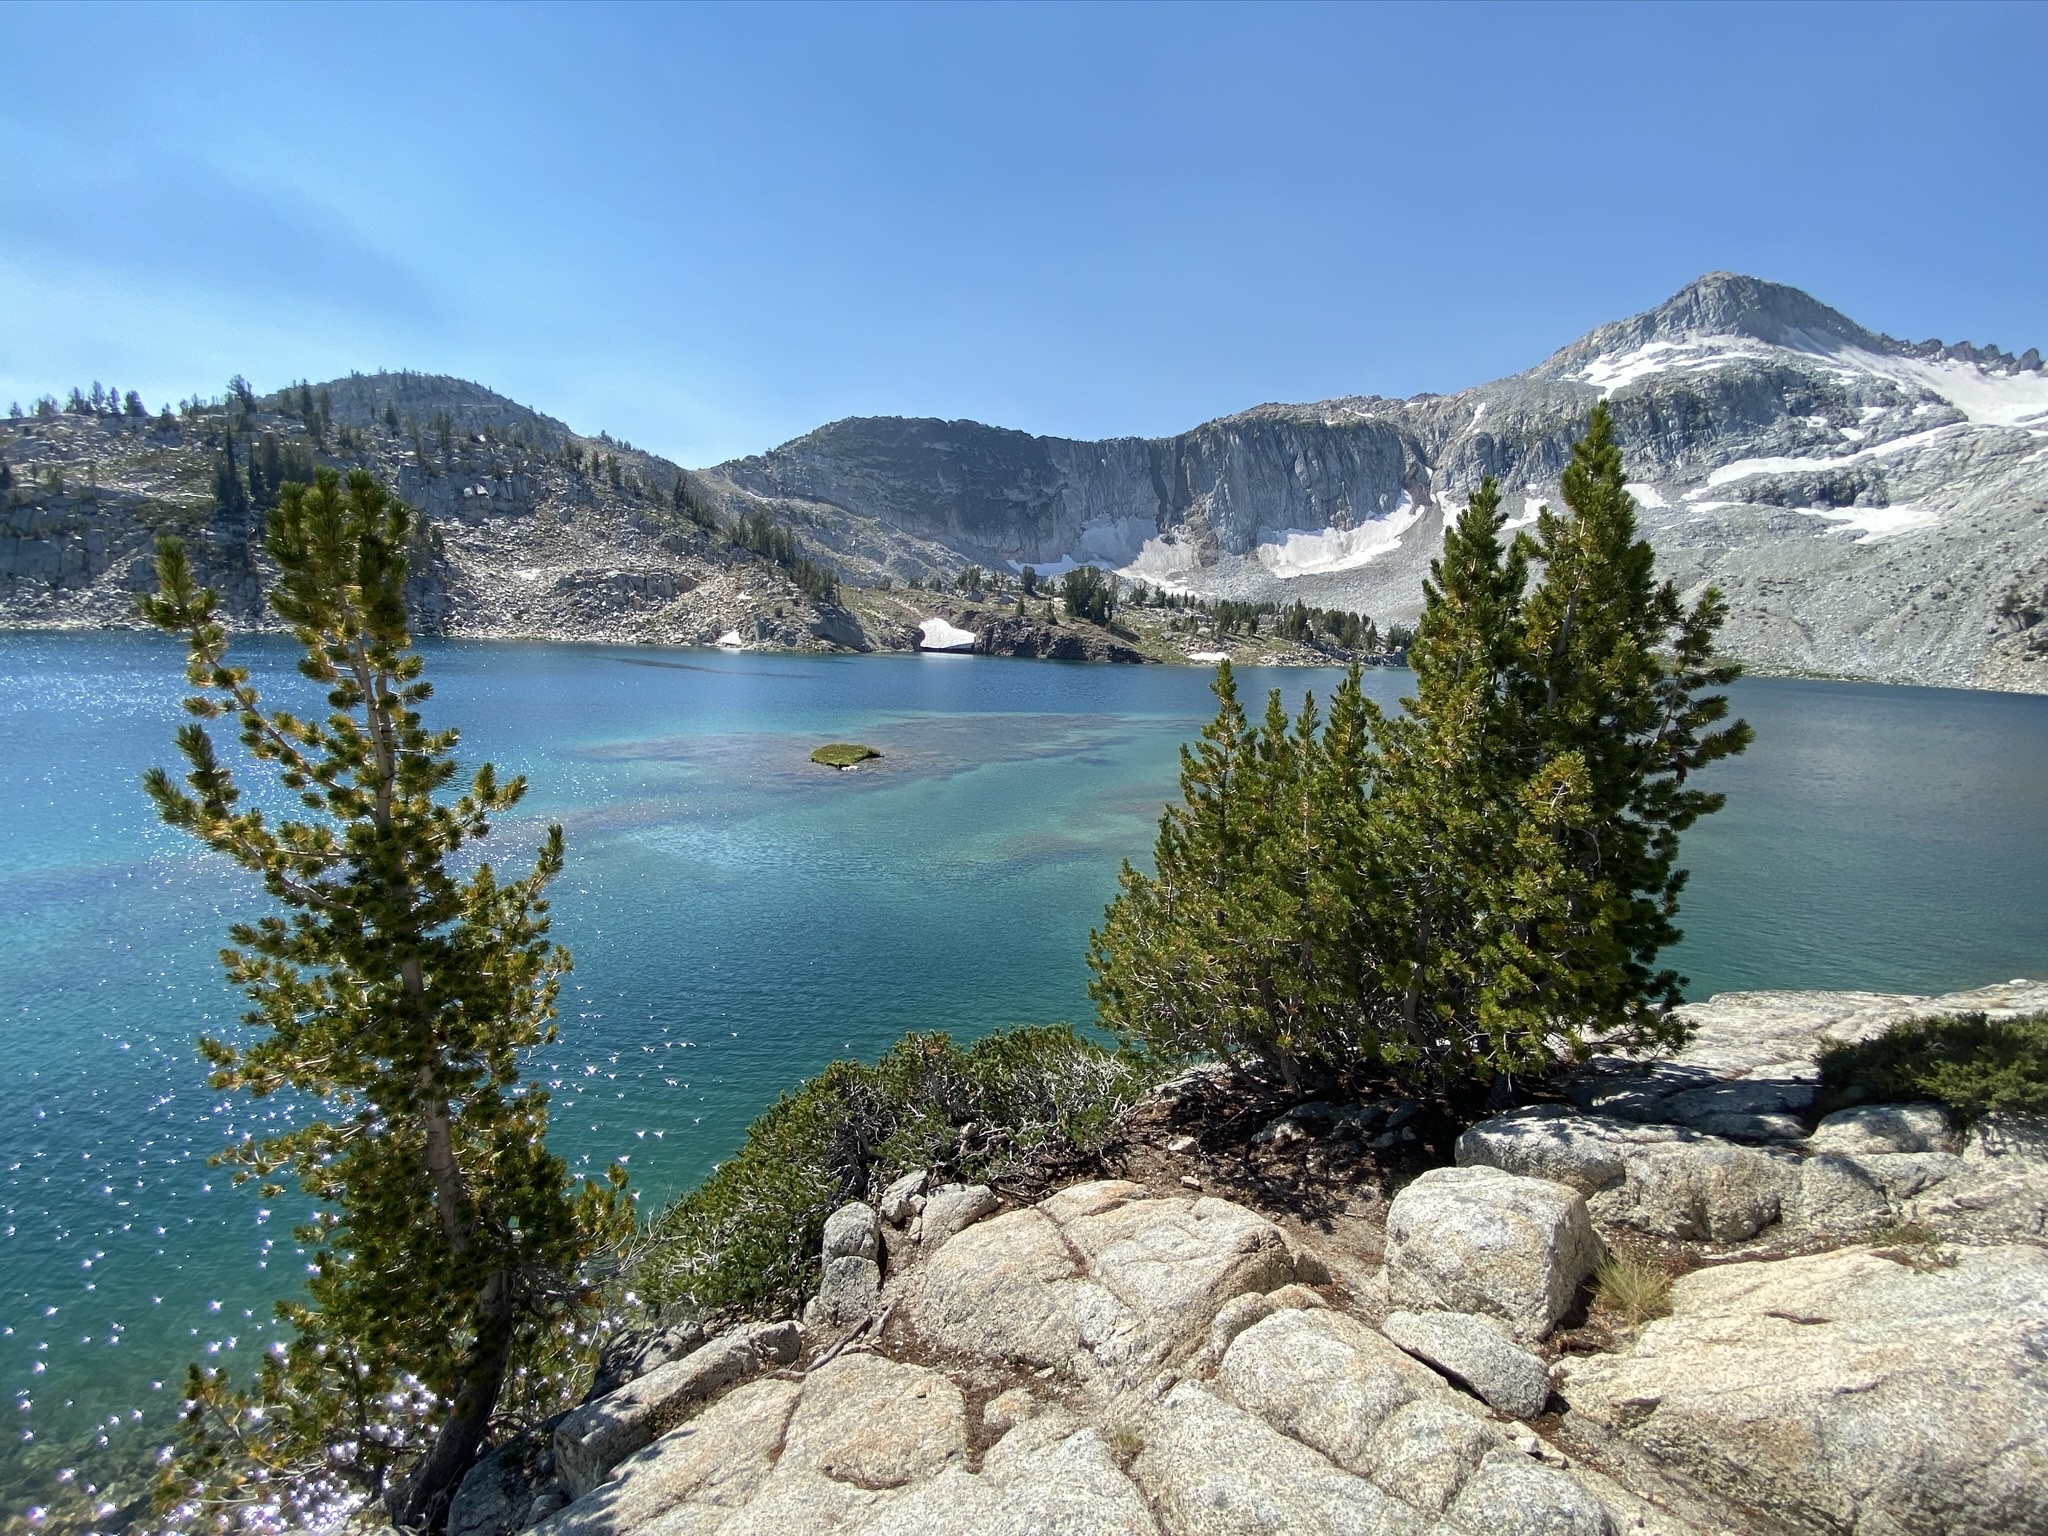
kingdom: Plantae
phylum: Tracheophyta
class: Pinopsida
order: Pinales
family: Pinaceae
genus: Pinus
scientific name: Pinus albicaulis
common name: Whitebark pine
